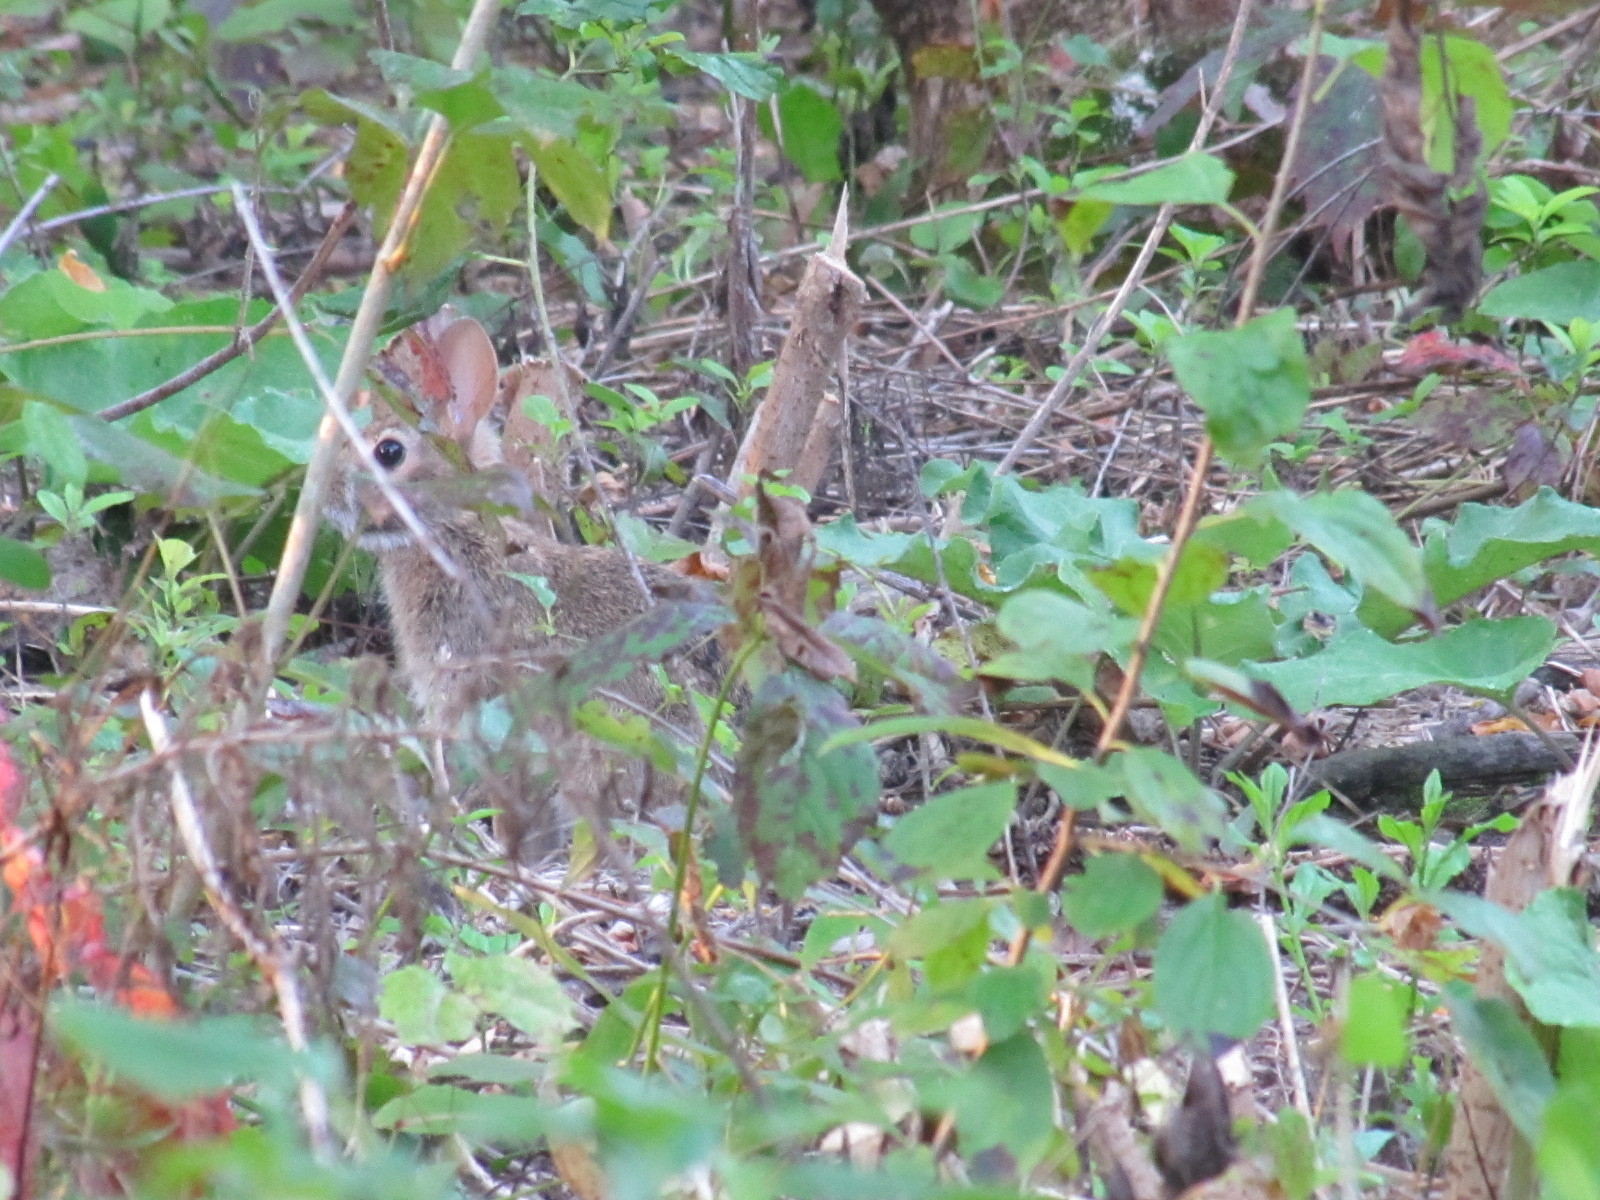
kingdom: Animalia
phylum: Chordata
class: Mammalia
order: Lagomorpha
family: Leporidae
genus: Sylvilagus
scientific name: Sylvilagus floridanus
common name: Eastern cottontail
